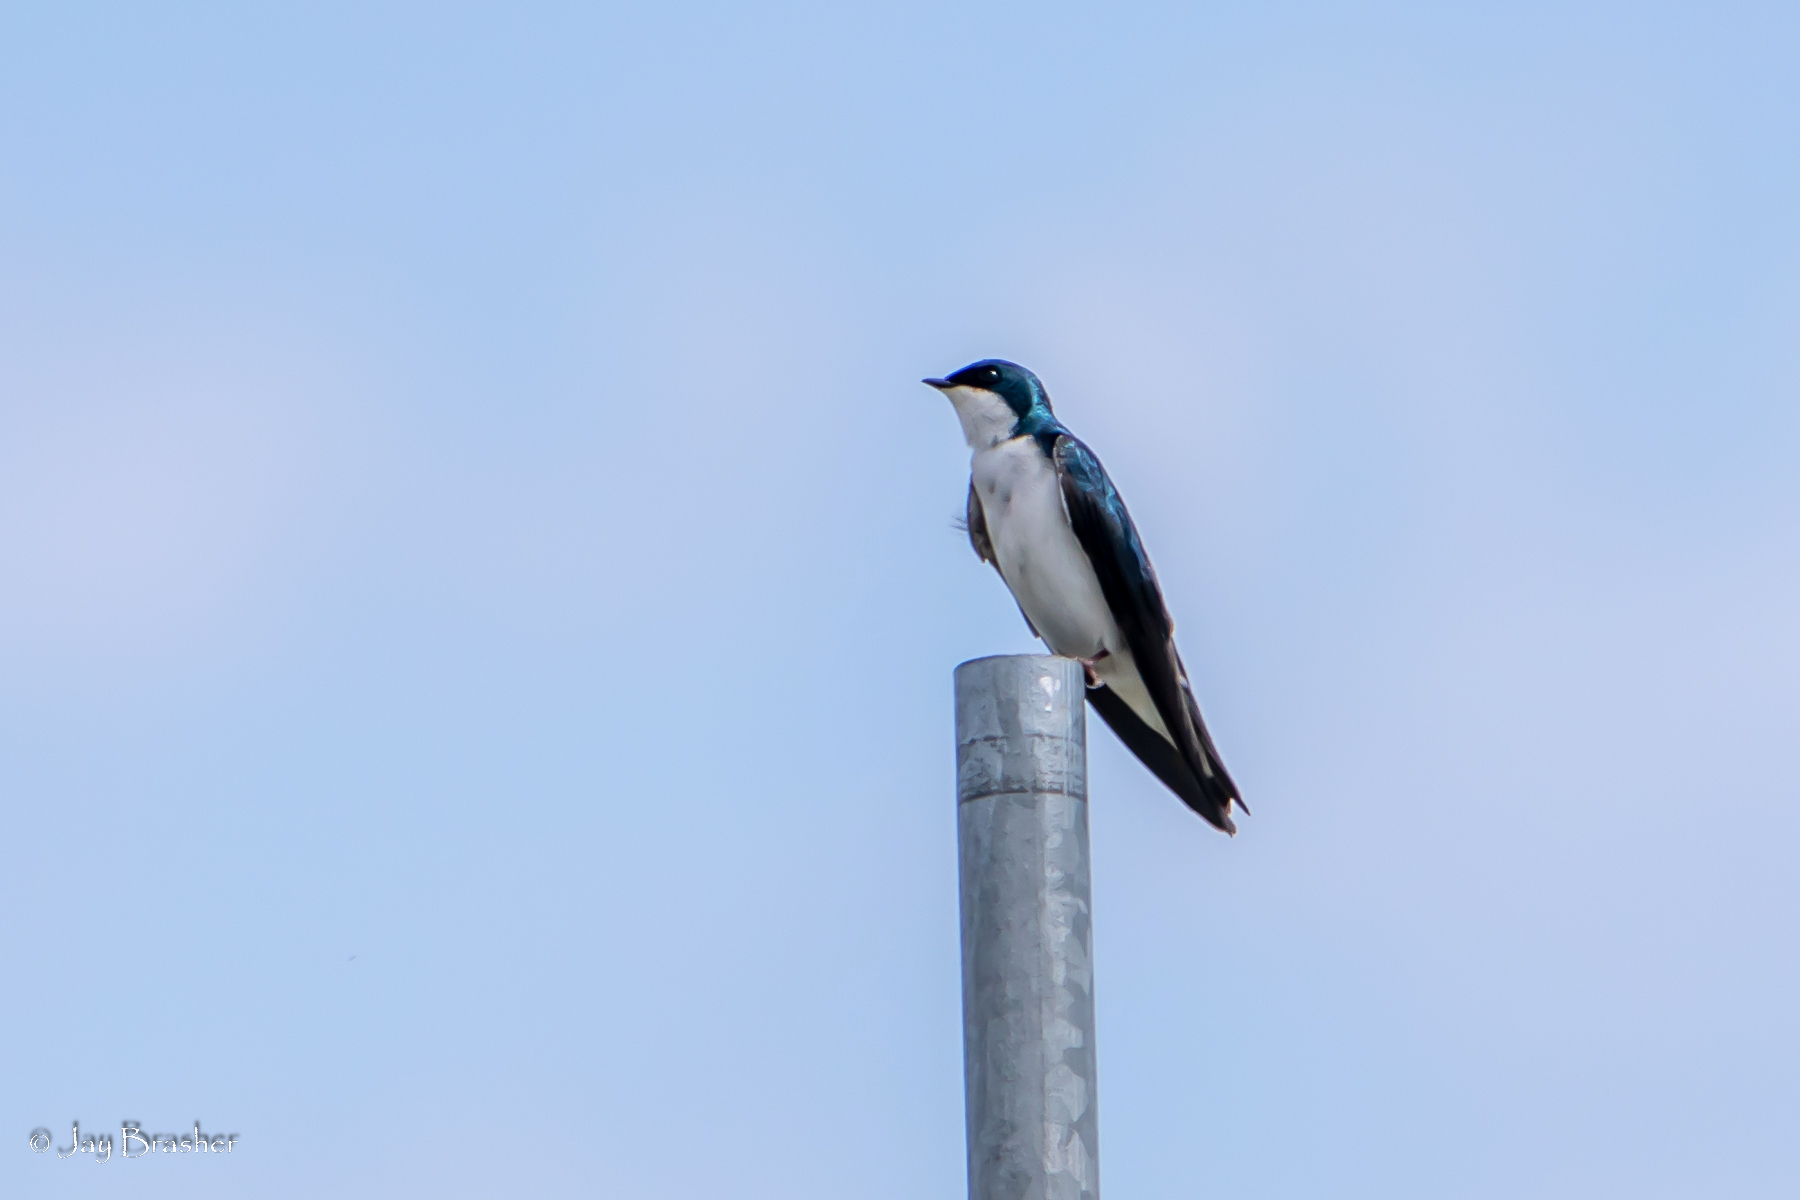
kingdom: Animalia
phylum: Chordata
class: Aves
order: Passeriformes
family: Hirundinidae
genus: Tachycineta
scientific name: Tachycineta bicolor
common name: Tree swallow
